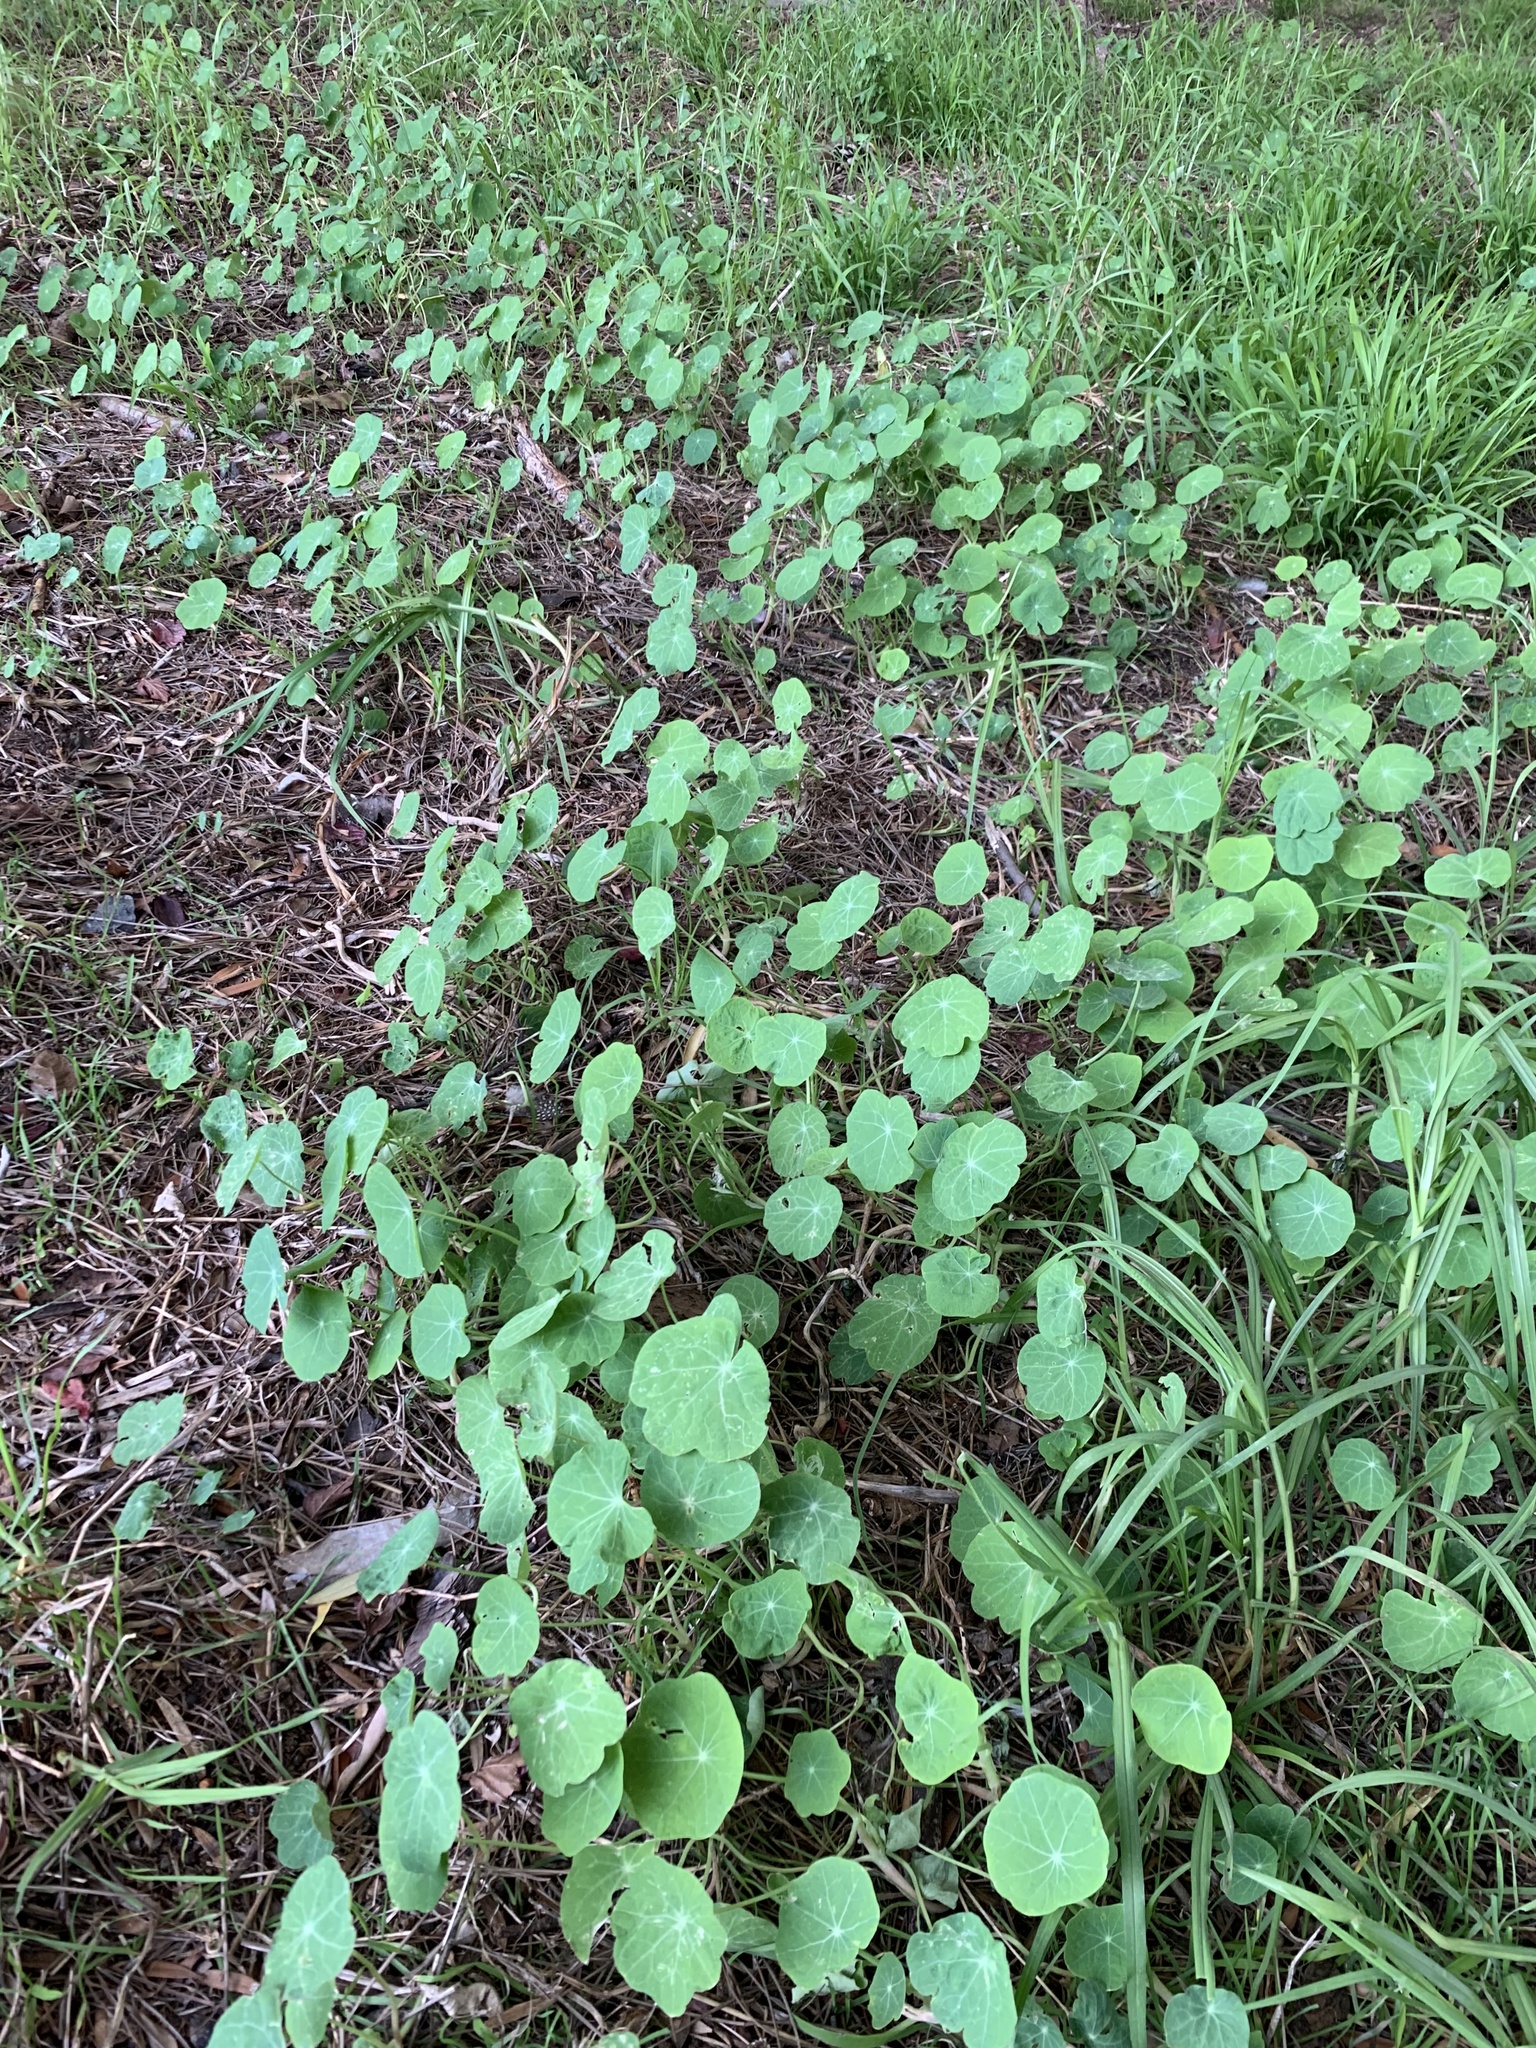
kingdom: Plantae
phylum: Tracheophyta
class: Magnoliopsida
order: Brassicales
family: Tropaeolaceae
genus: Tropaeolum
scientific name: Tropaeolum majus
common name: Nasturtium
